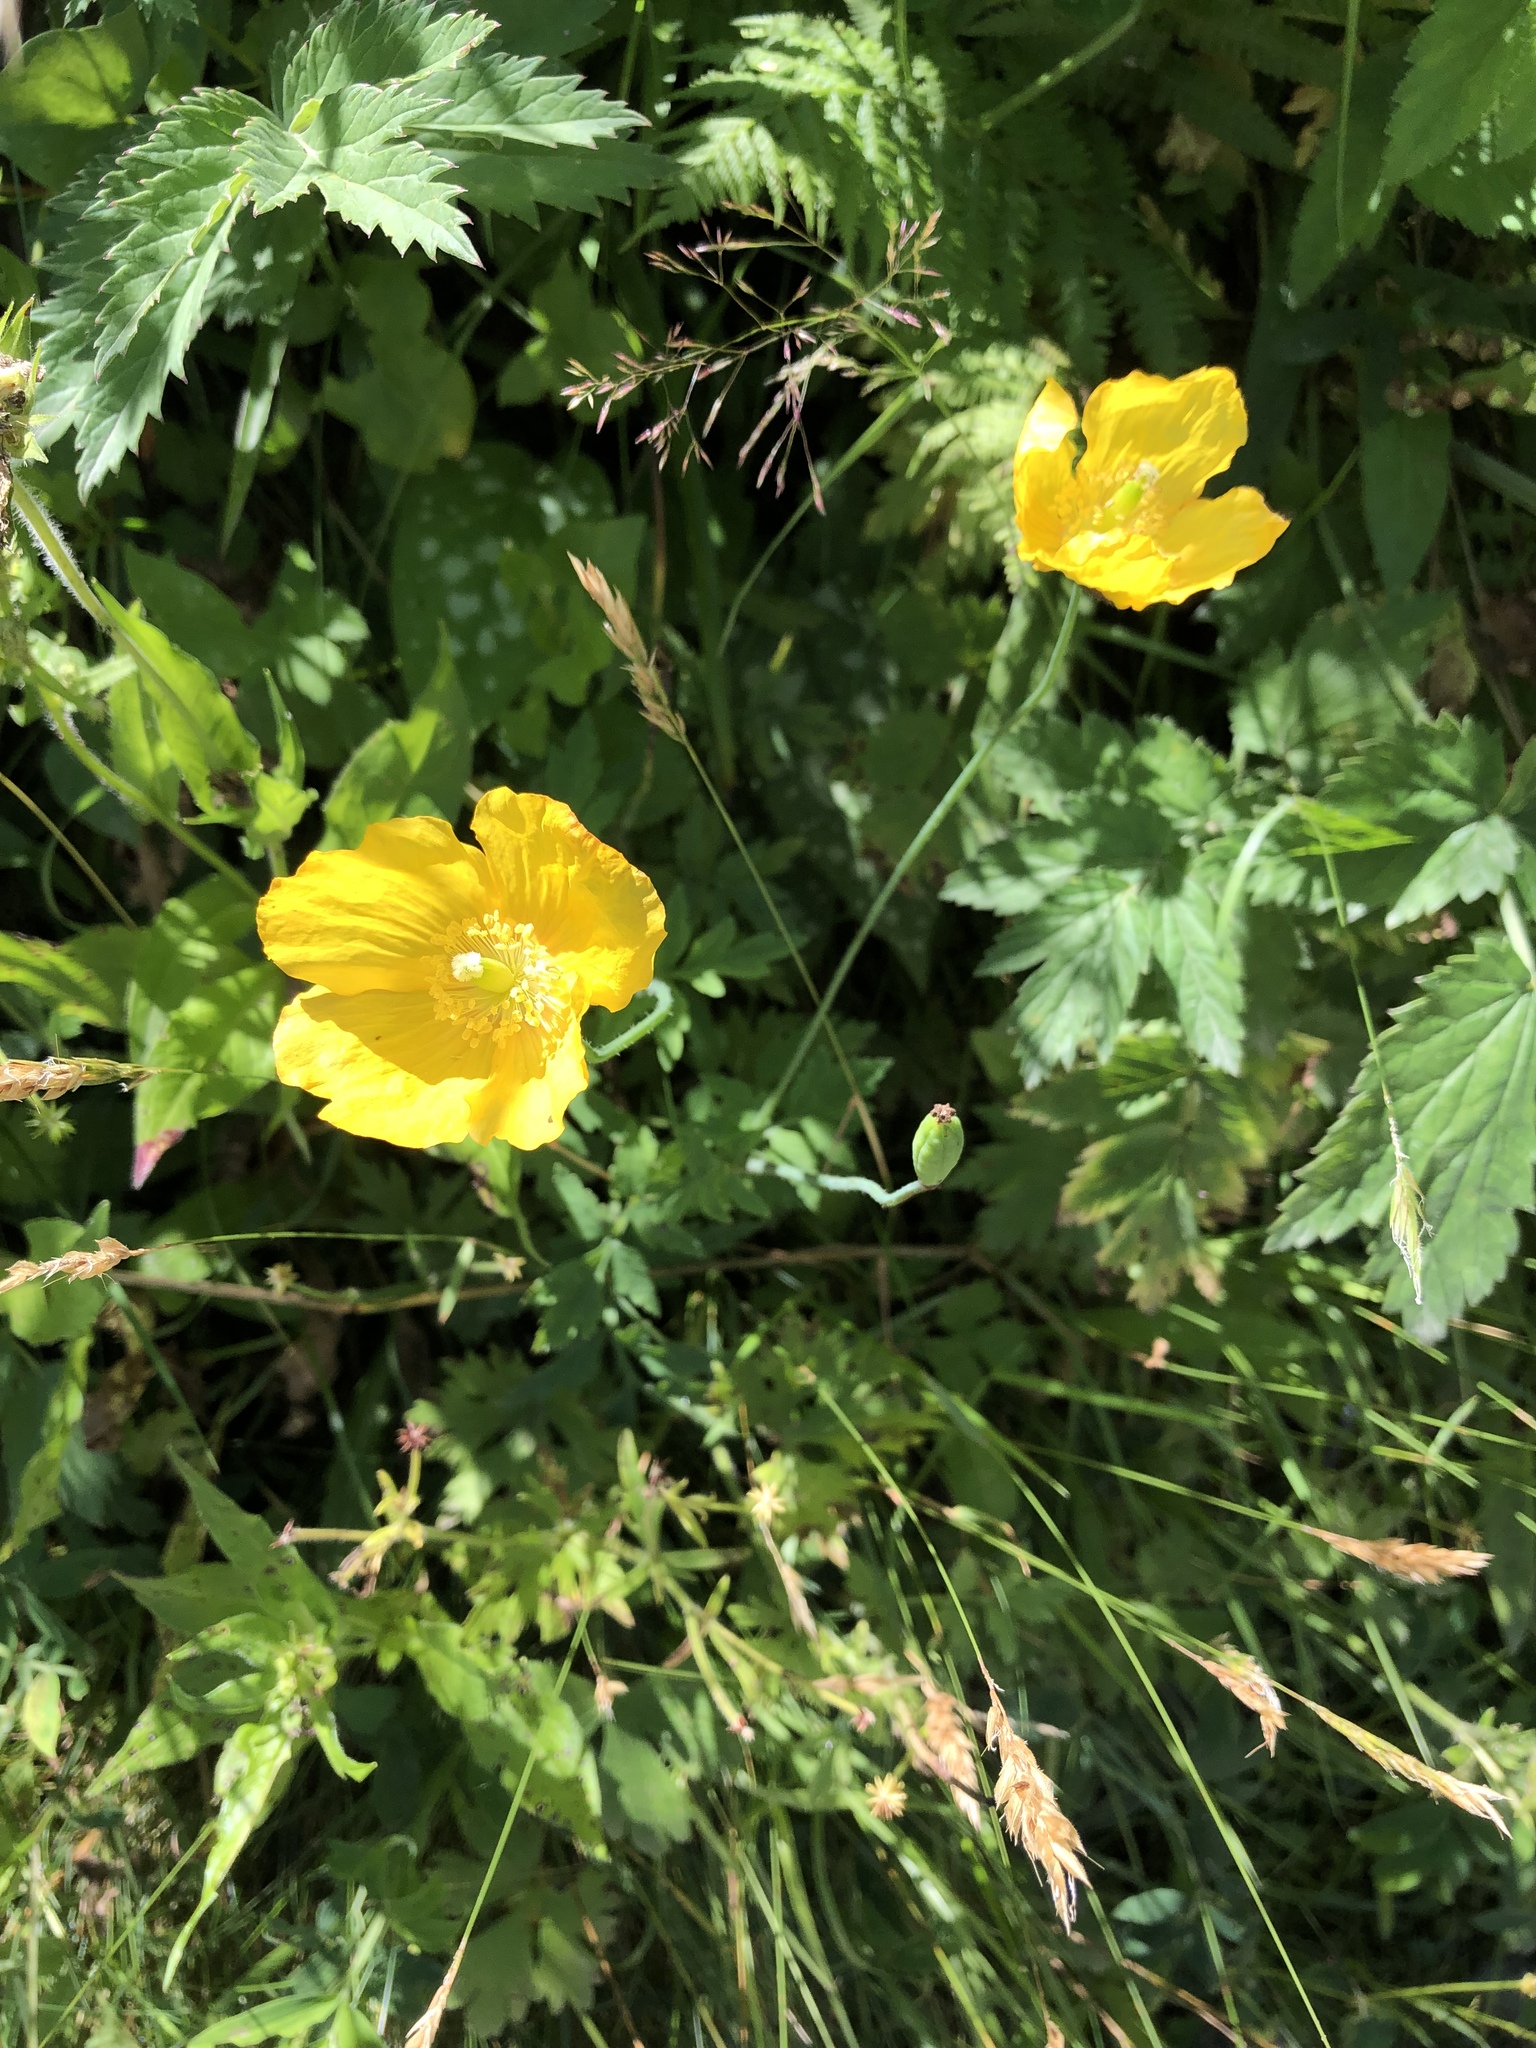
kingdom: Plantae
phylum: Tracheophyta
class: Magnoliopsida
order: Ranunculales
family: Papaveraceae
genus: Papaver
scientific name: Papaver cambricum
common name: Poppy
